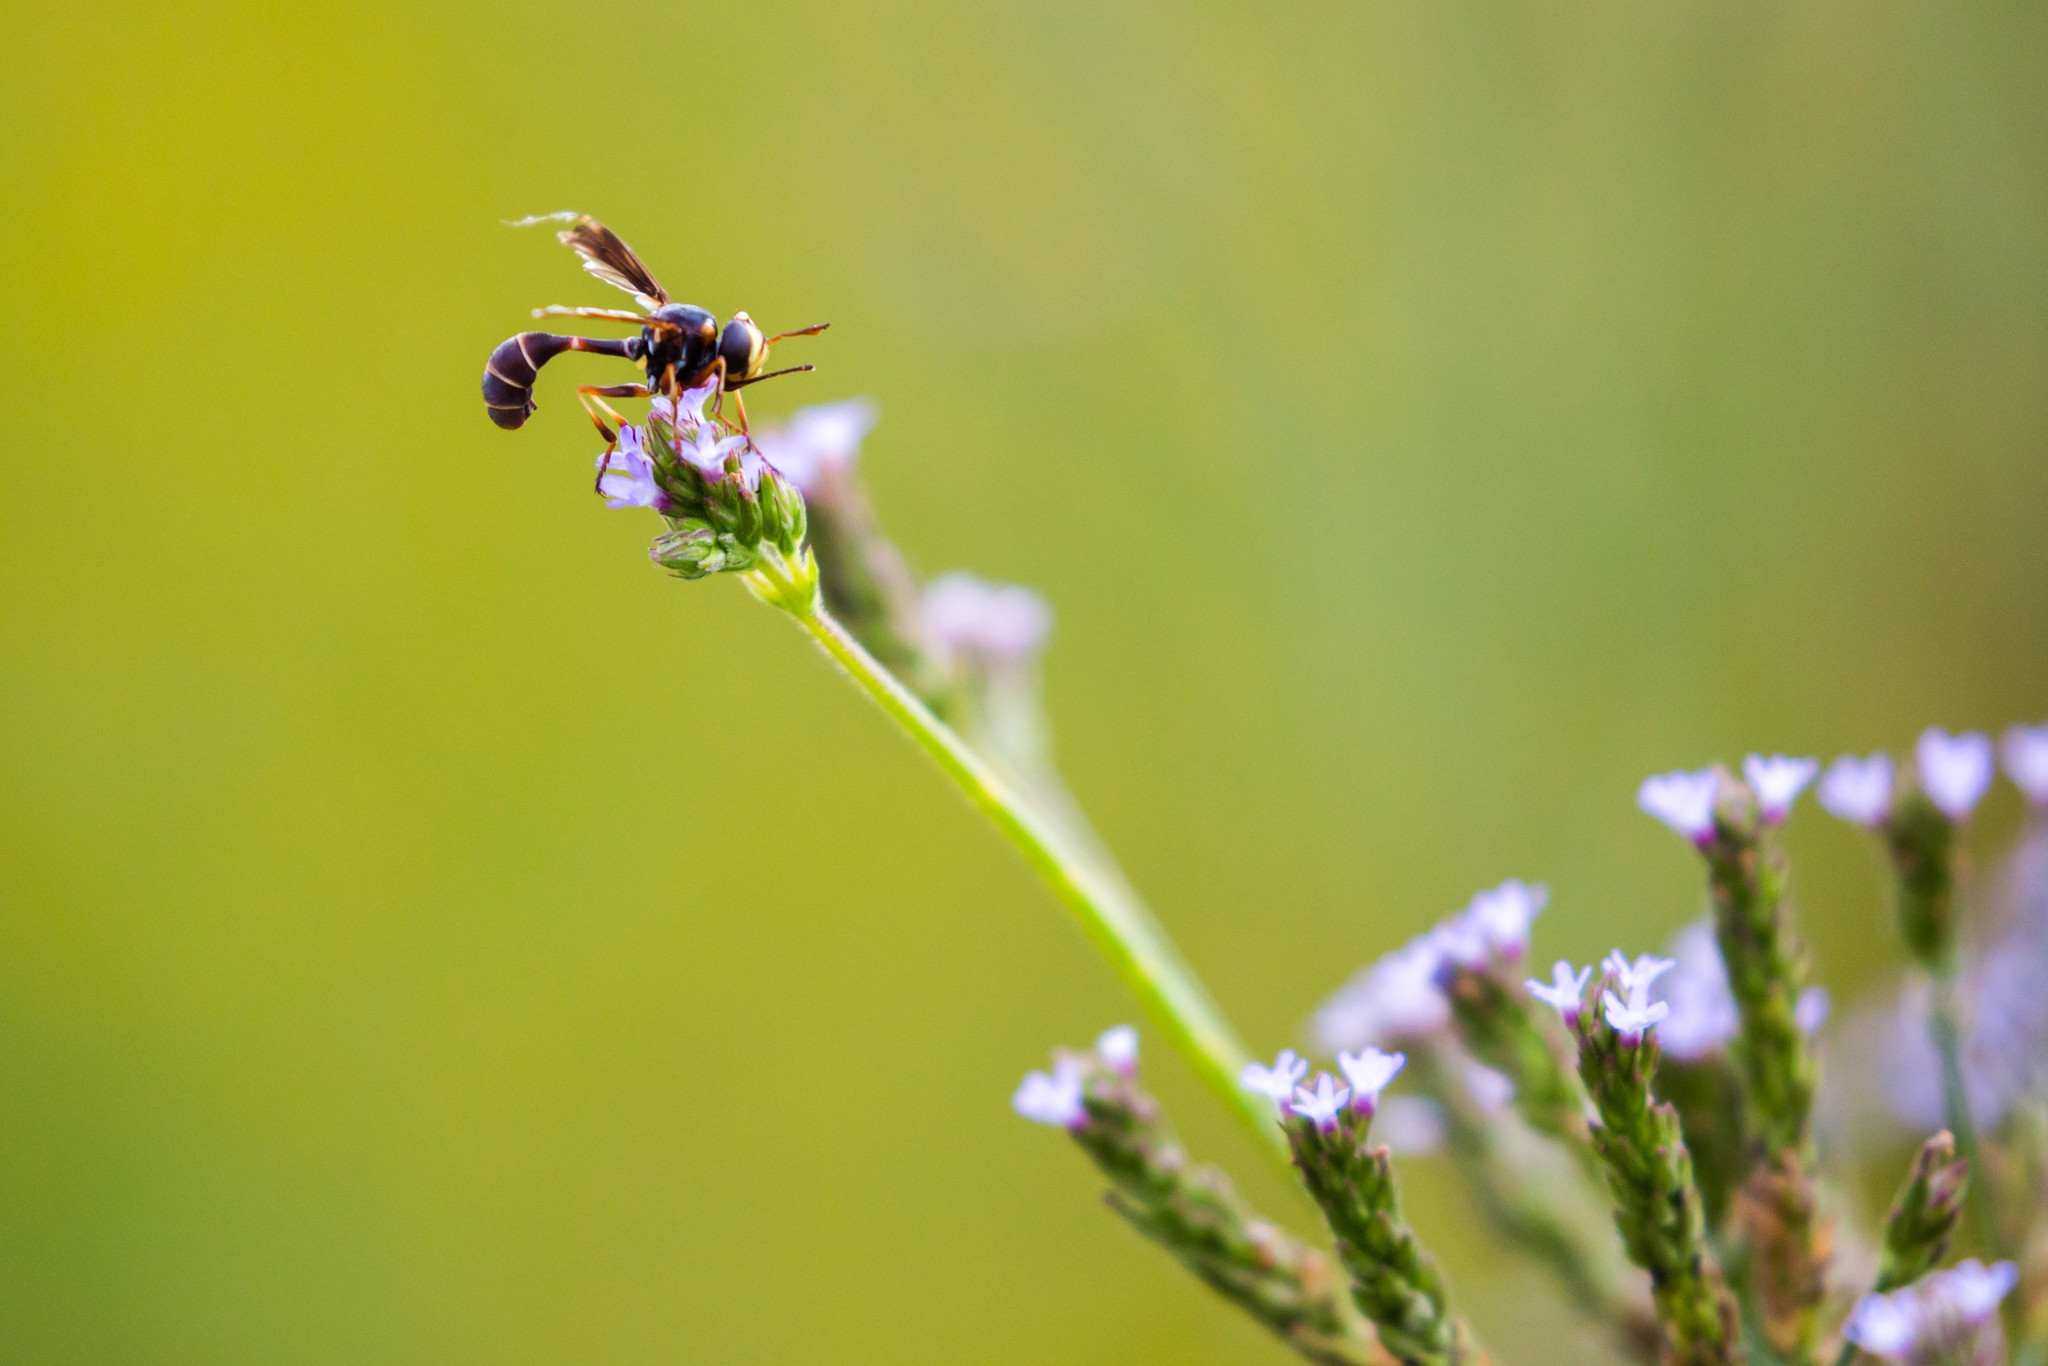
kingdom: Animalia
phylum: Arthropoda
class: Insecta
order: Diptera
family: Conopidae
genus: Physocephala
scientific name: Physocephala sagittaria
